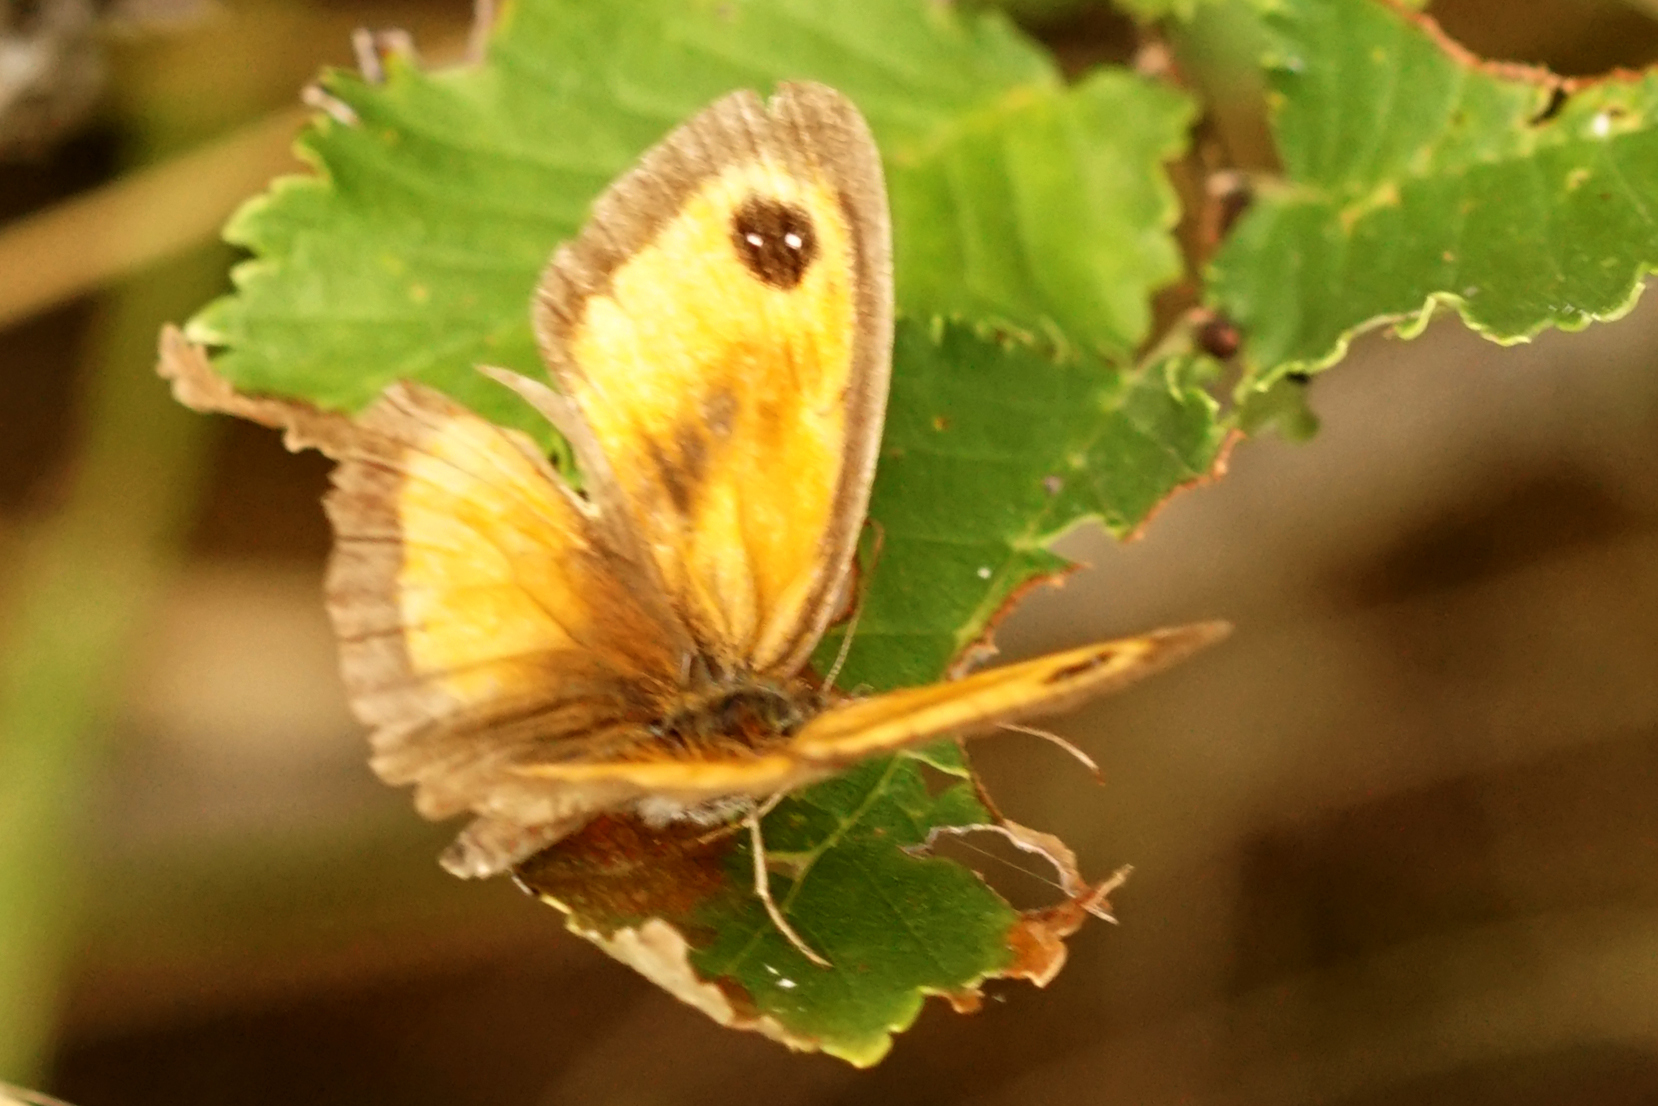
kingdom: Animalia
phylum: Arthropoda
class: Insecta
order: Lepidoptera
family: Nymphalidae
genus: Pyronia
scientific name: Pyronia tithonus
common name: Gatekeeper
